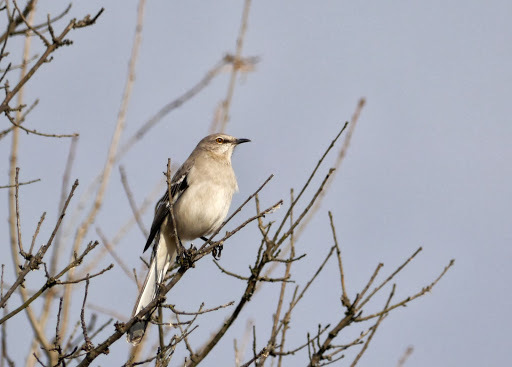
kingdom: Animalia
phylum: Chordata
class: Aves
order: Passeriformes
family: Mimidae
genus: Mimus
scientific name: Mimus polyglottos
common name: Northern mockingbird
